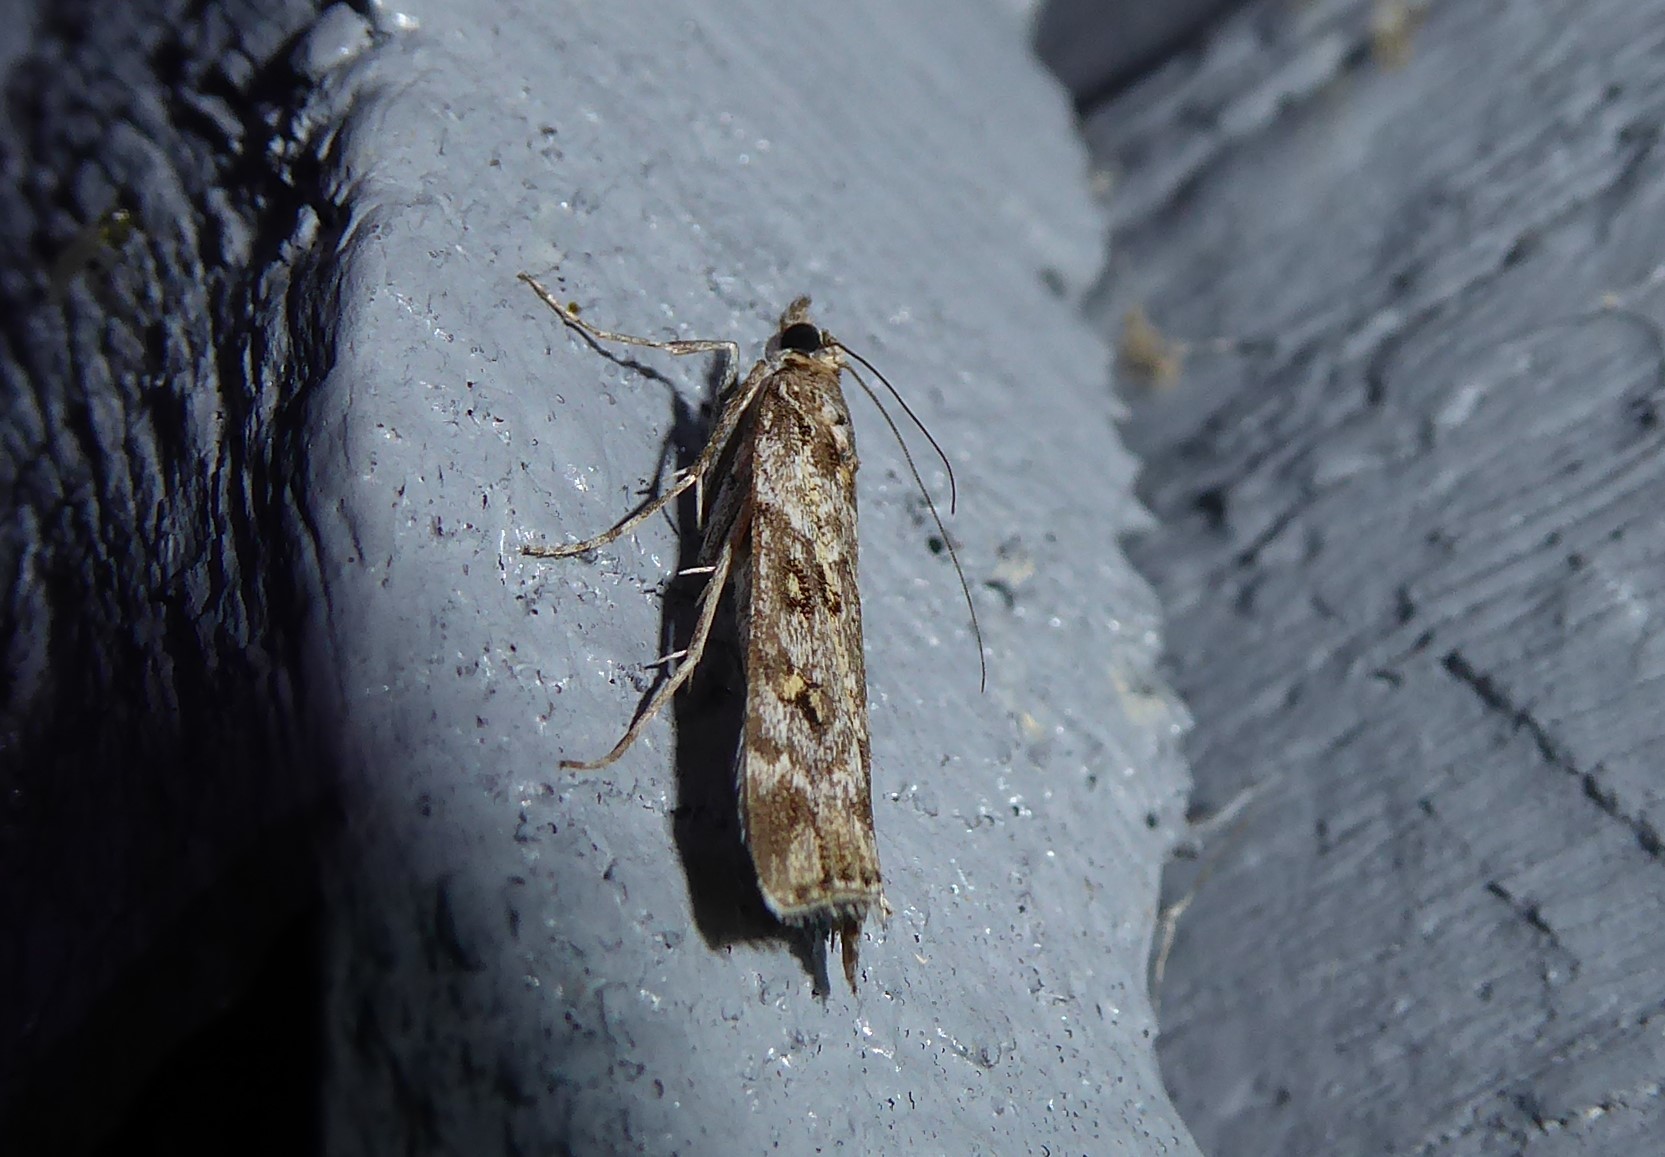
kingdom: Animalia
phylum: Arthropoda
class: Insecta
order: Lepidoptera
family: Crambidae
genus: Eudonia
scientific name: Eudonia diphtheralis
